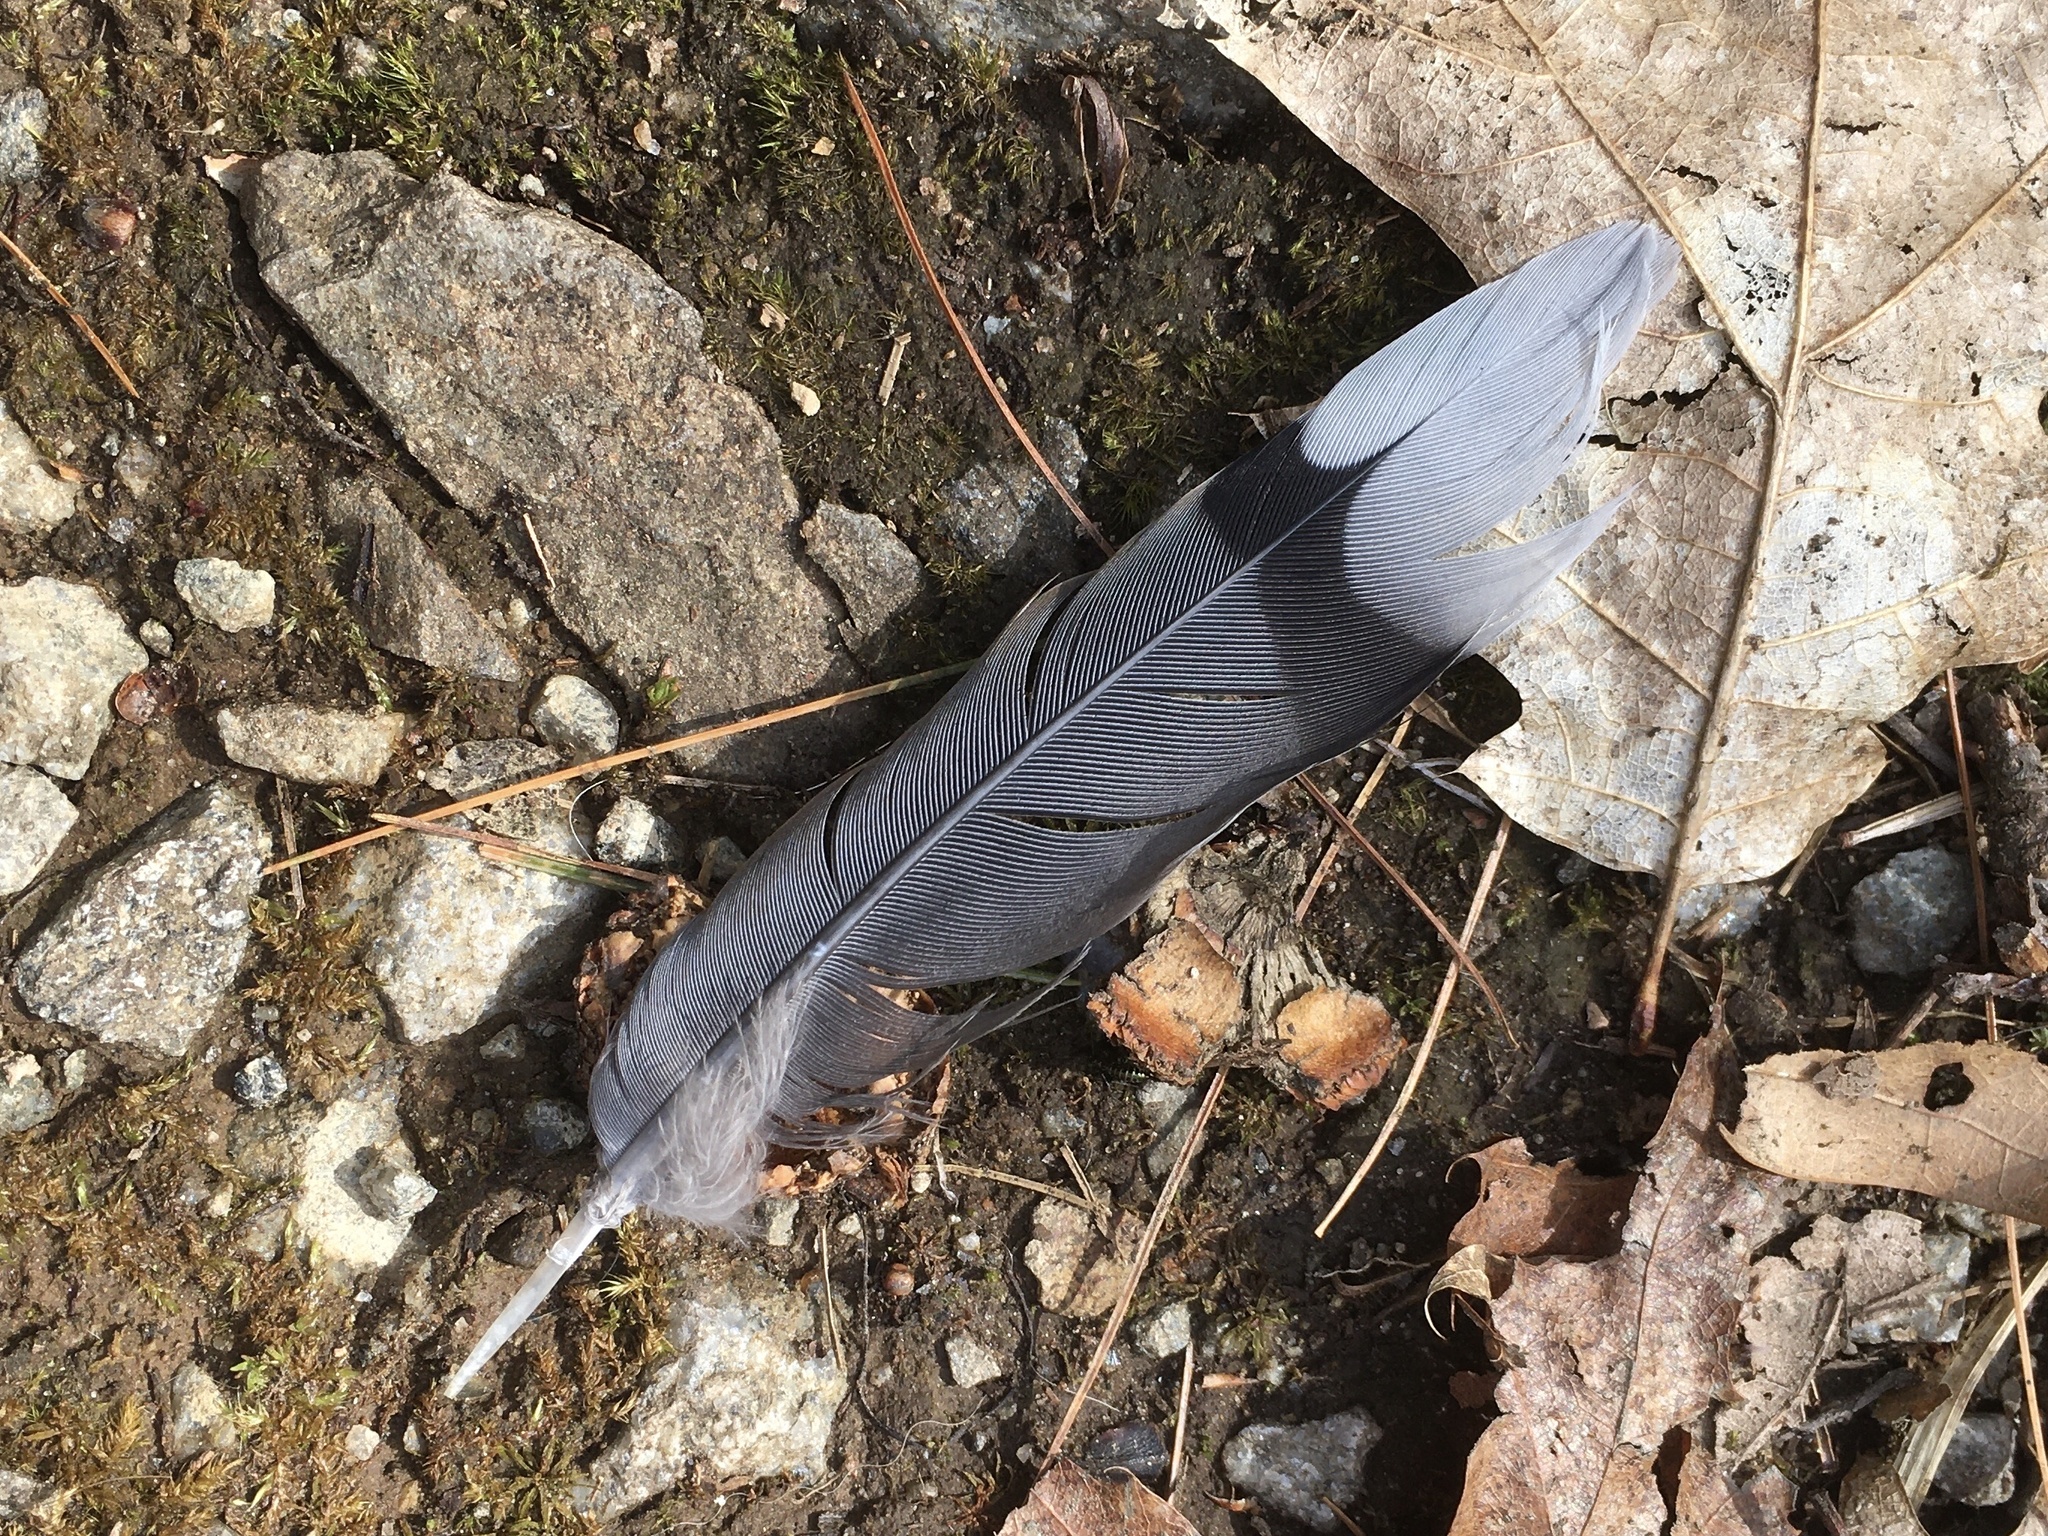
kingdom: Animalia
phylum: Chordata
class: Aves
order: Columbiformes
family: Columbidae
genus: Zenaida
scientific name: Zenaida macroura
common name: Mourning dove
